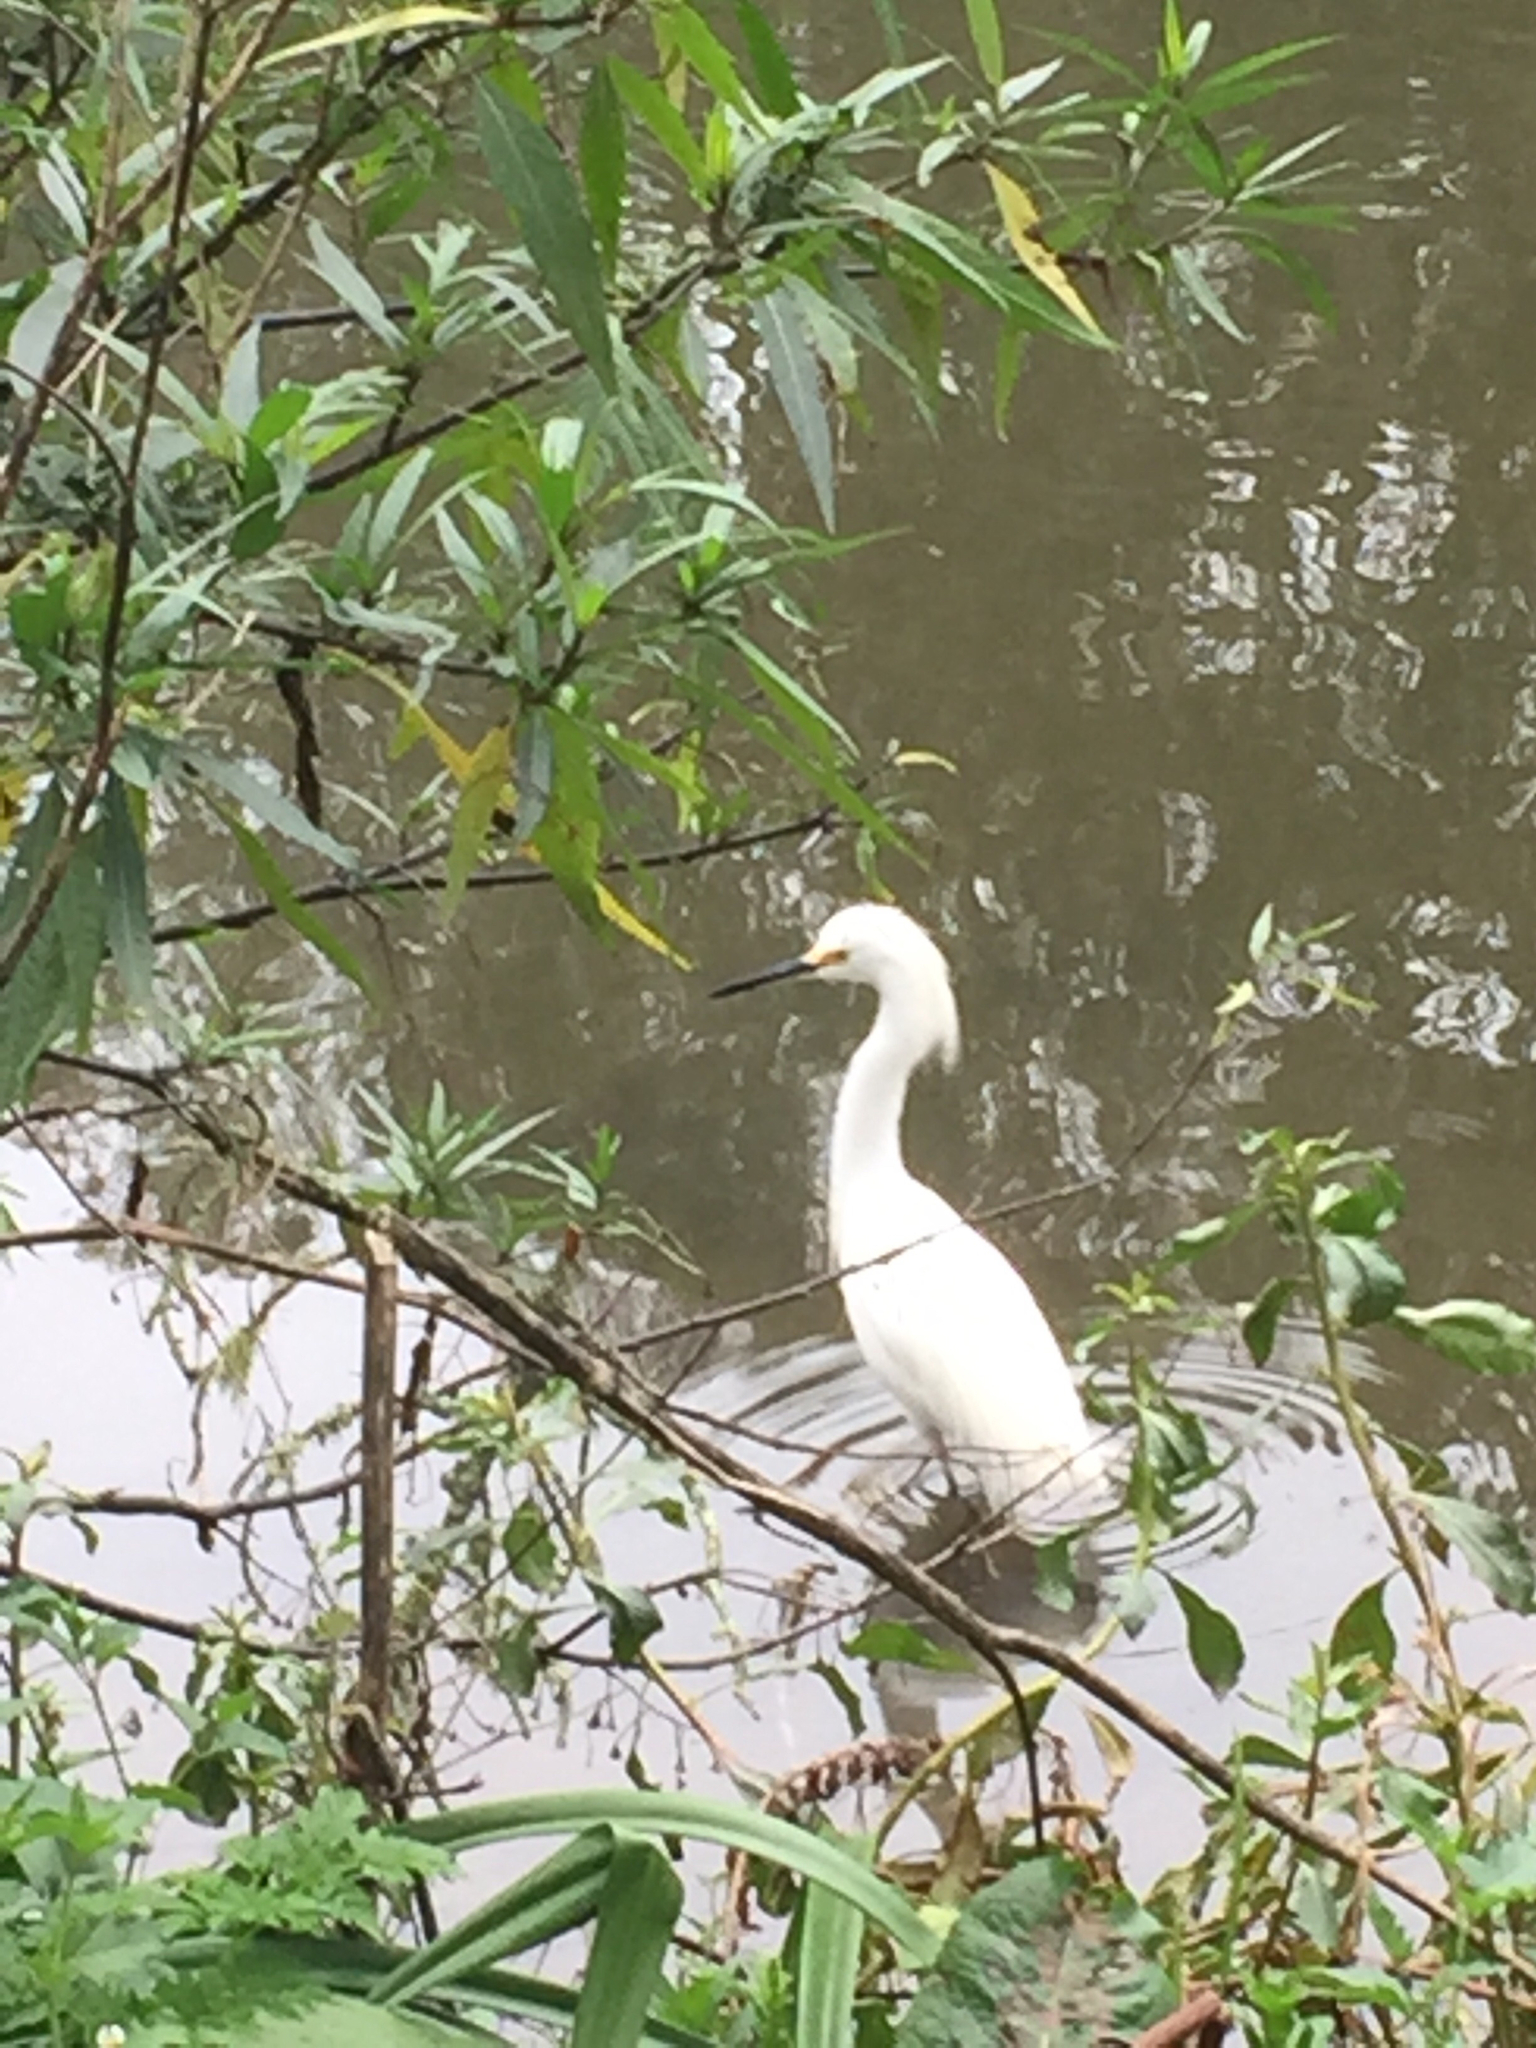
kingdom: Animalia
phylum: Chordata
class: Aves
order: Pelecaniformes
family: Ardeidae
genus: Egretta
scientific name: Egretta thula
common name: Snowy egret
